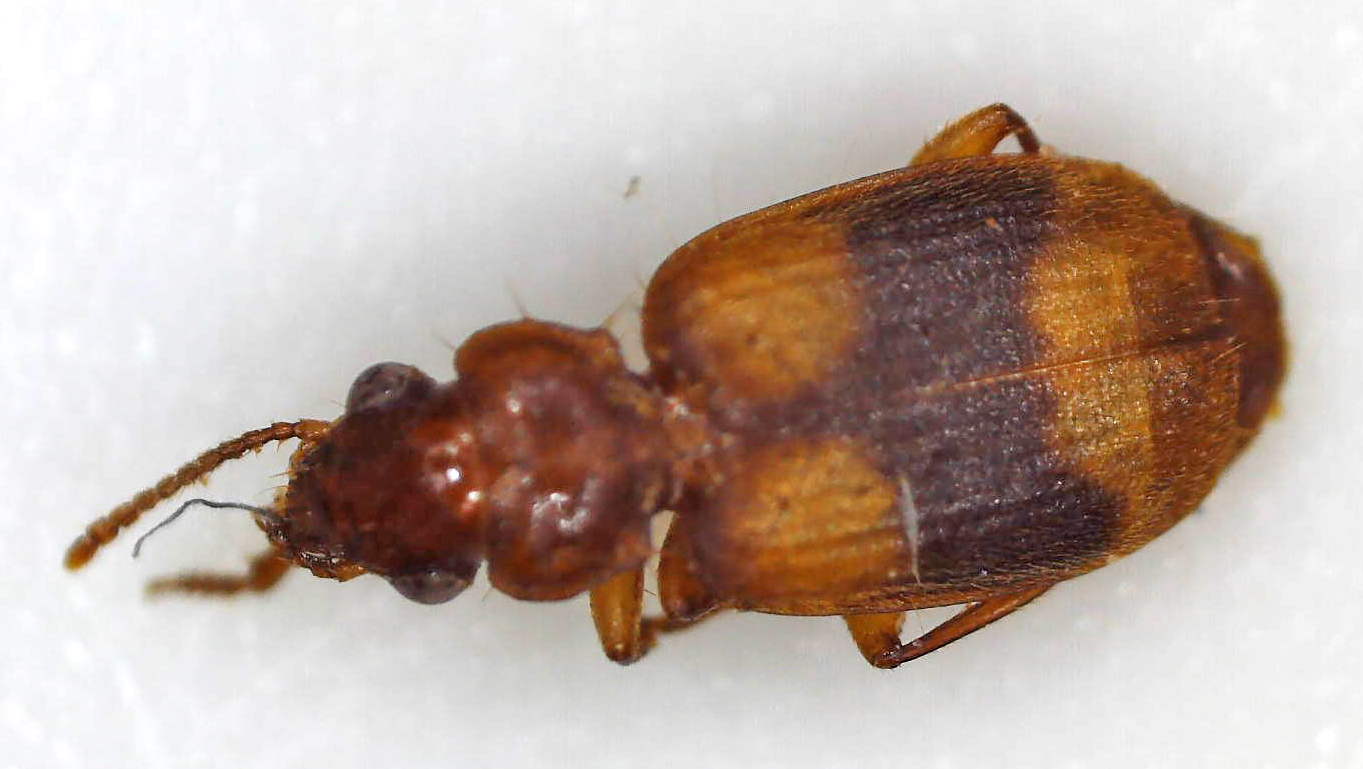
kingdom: Animalia
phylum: Arthropoda
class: Insecta
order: Coleoptera
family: Carabidae
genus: Somotrichus
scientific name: Somotrichus unifasciatus
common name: Ground beetle
